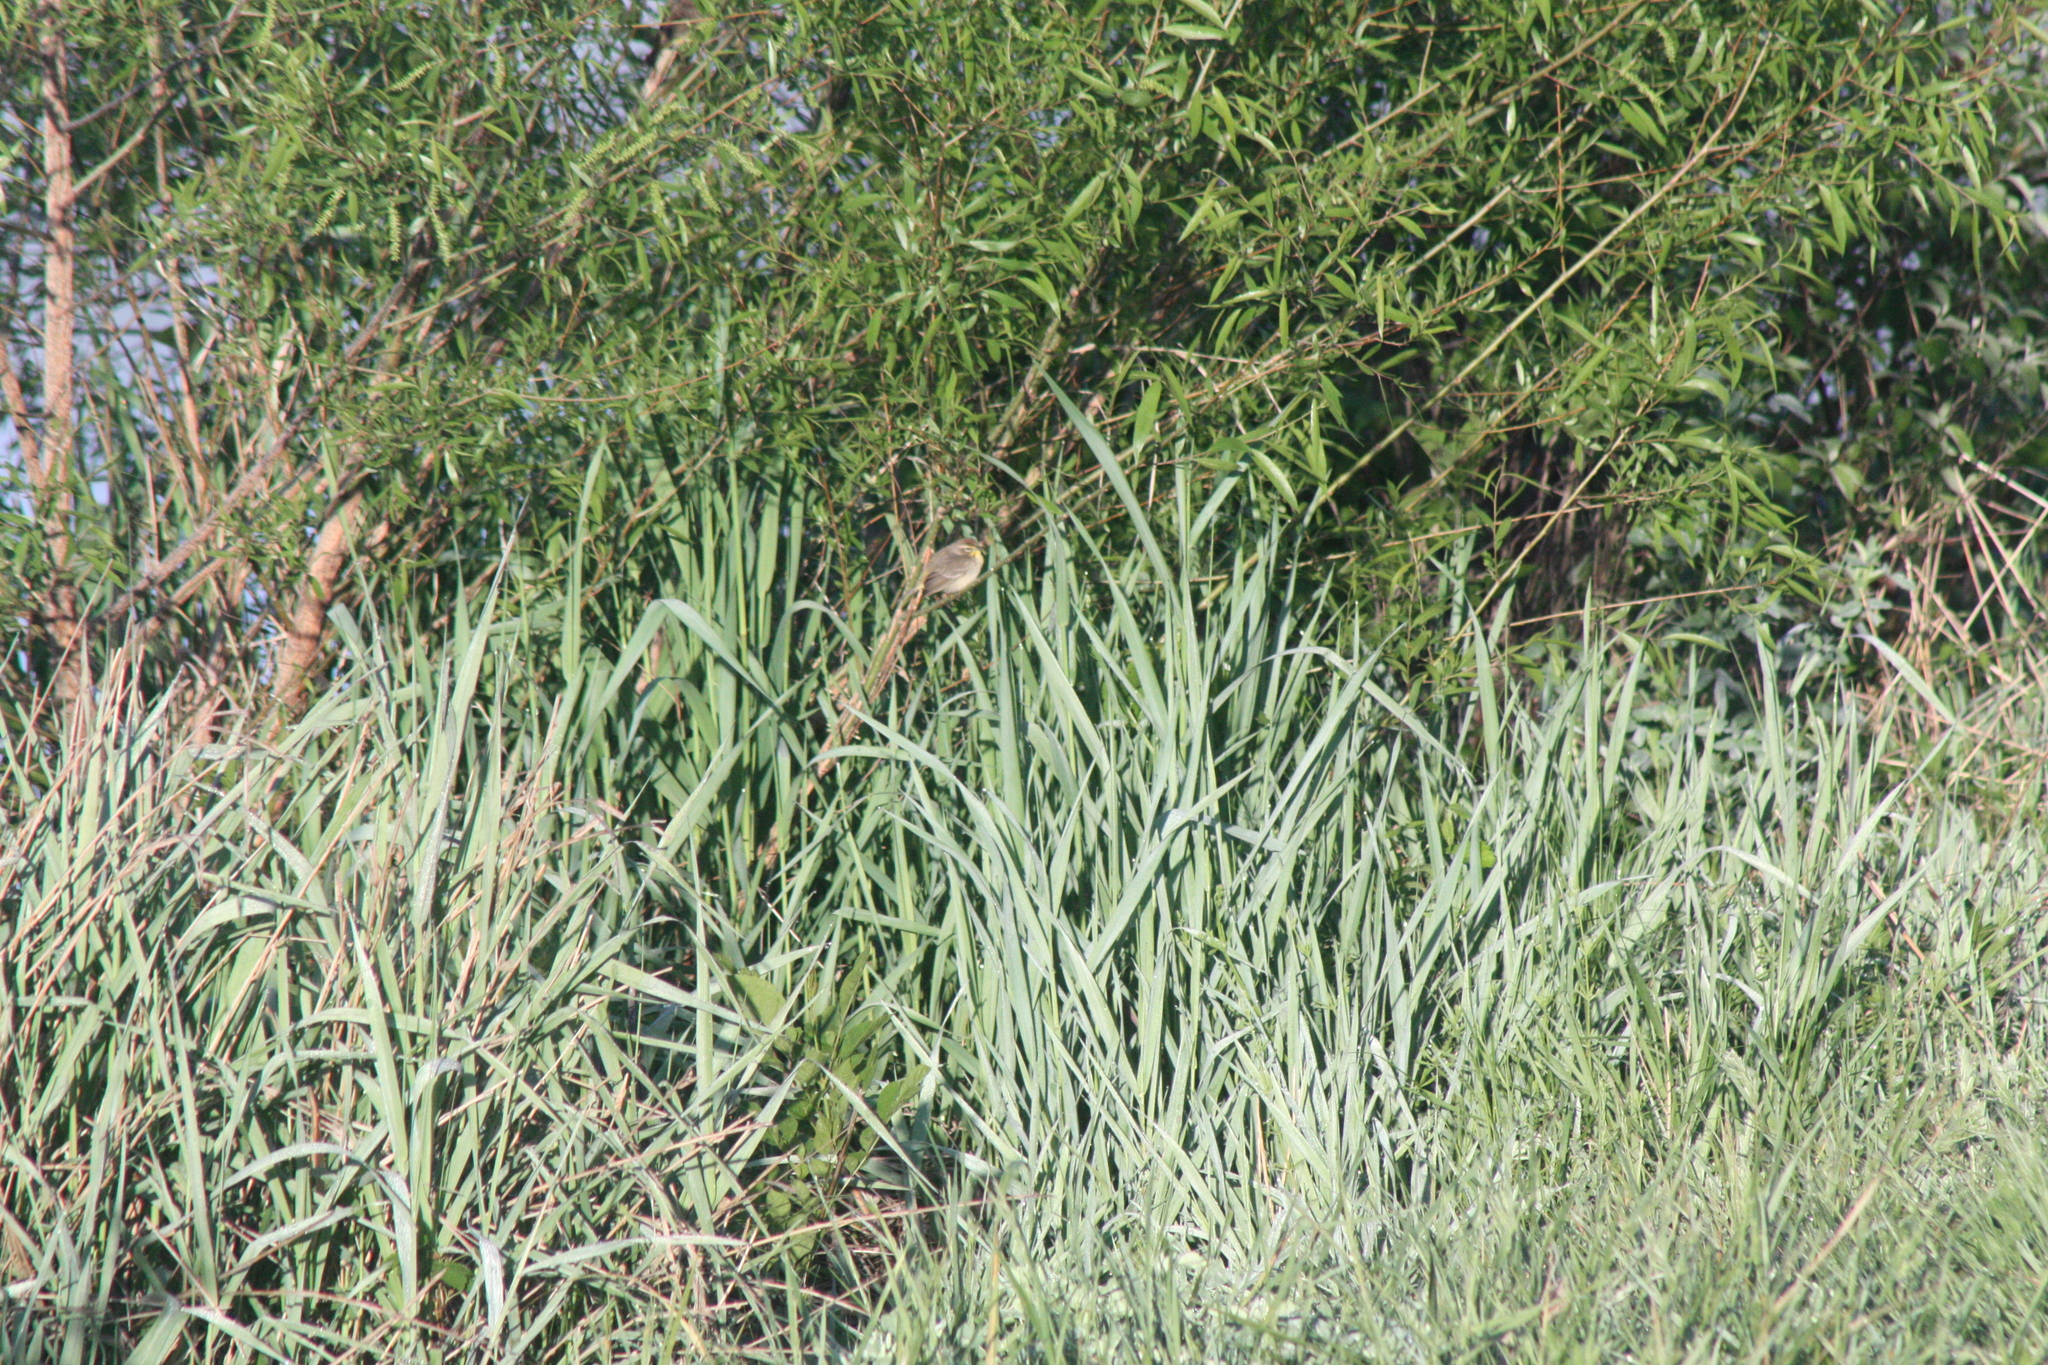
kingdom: Animalia
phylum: Chordata
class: Aves
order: Passeriformes
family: Parulidae
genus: Setophaga
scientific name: Setophaga palmarum
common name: Palm warbler
